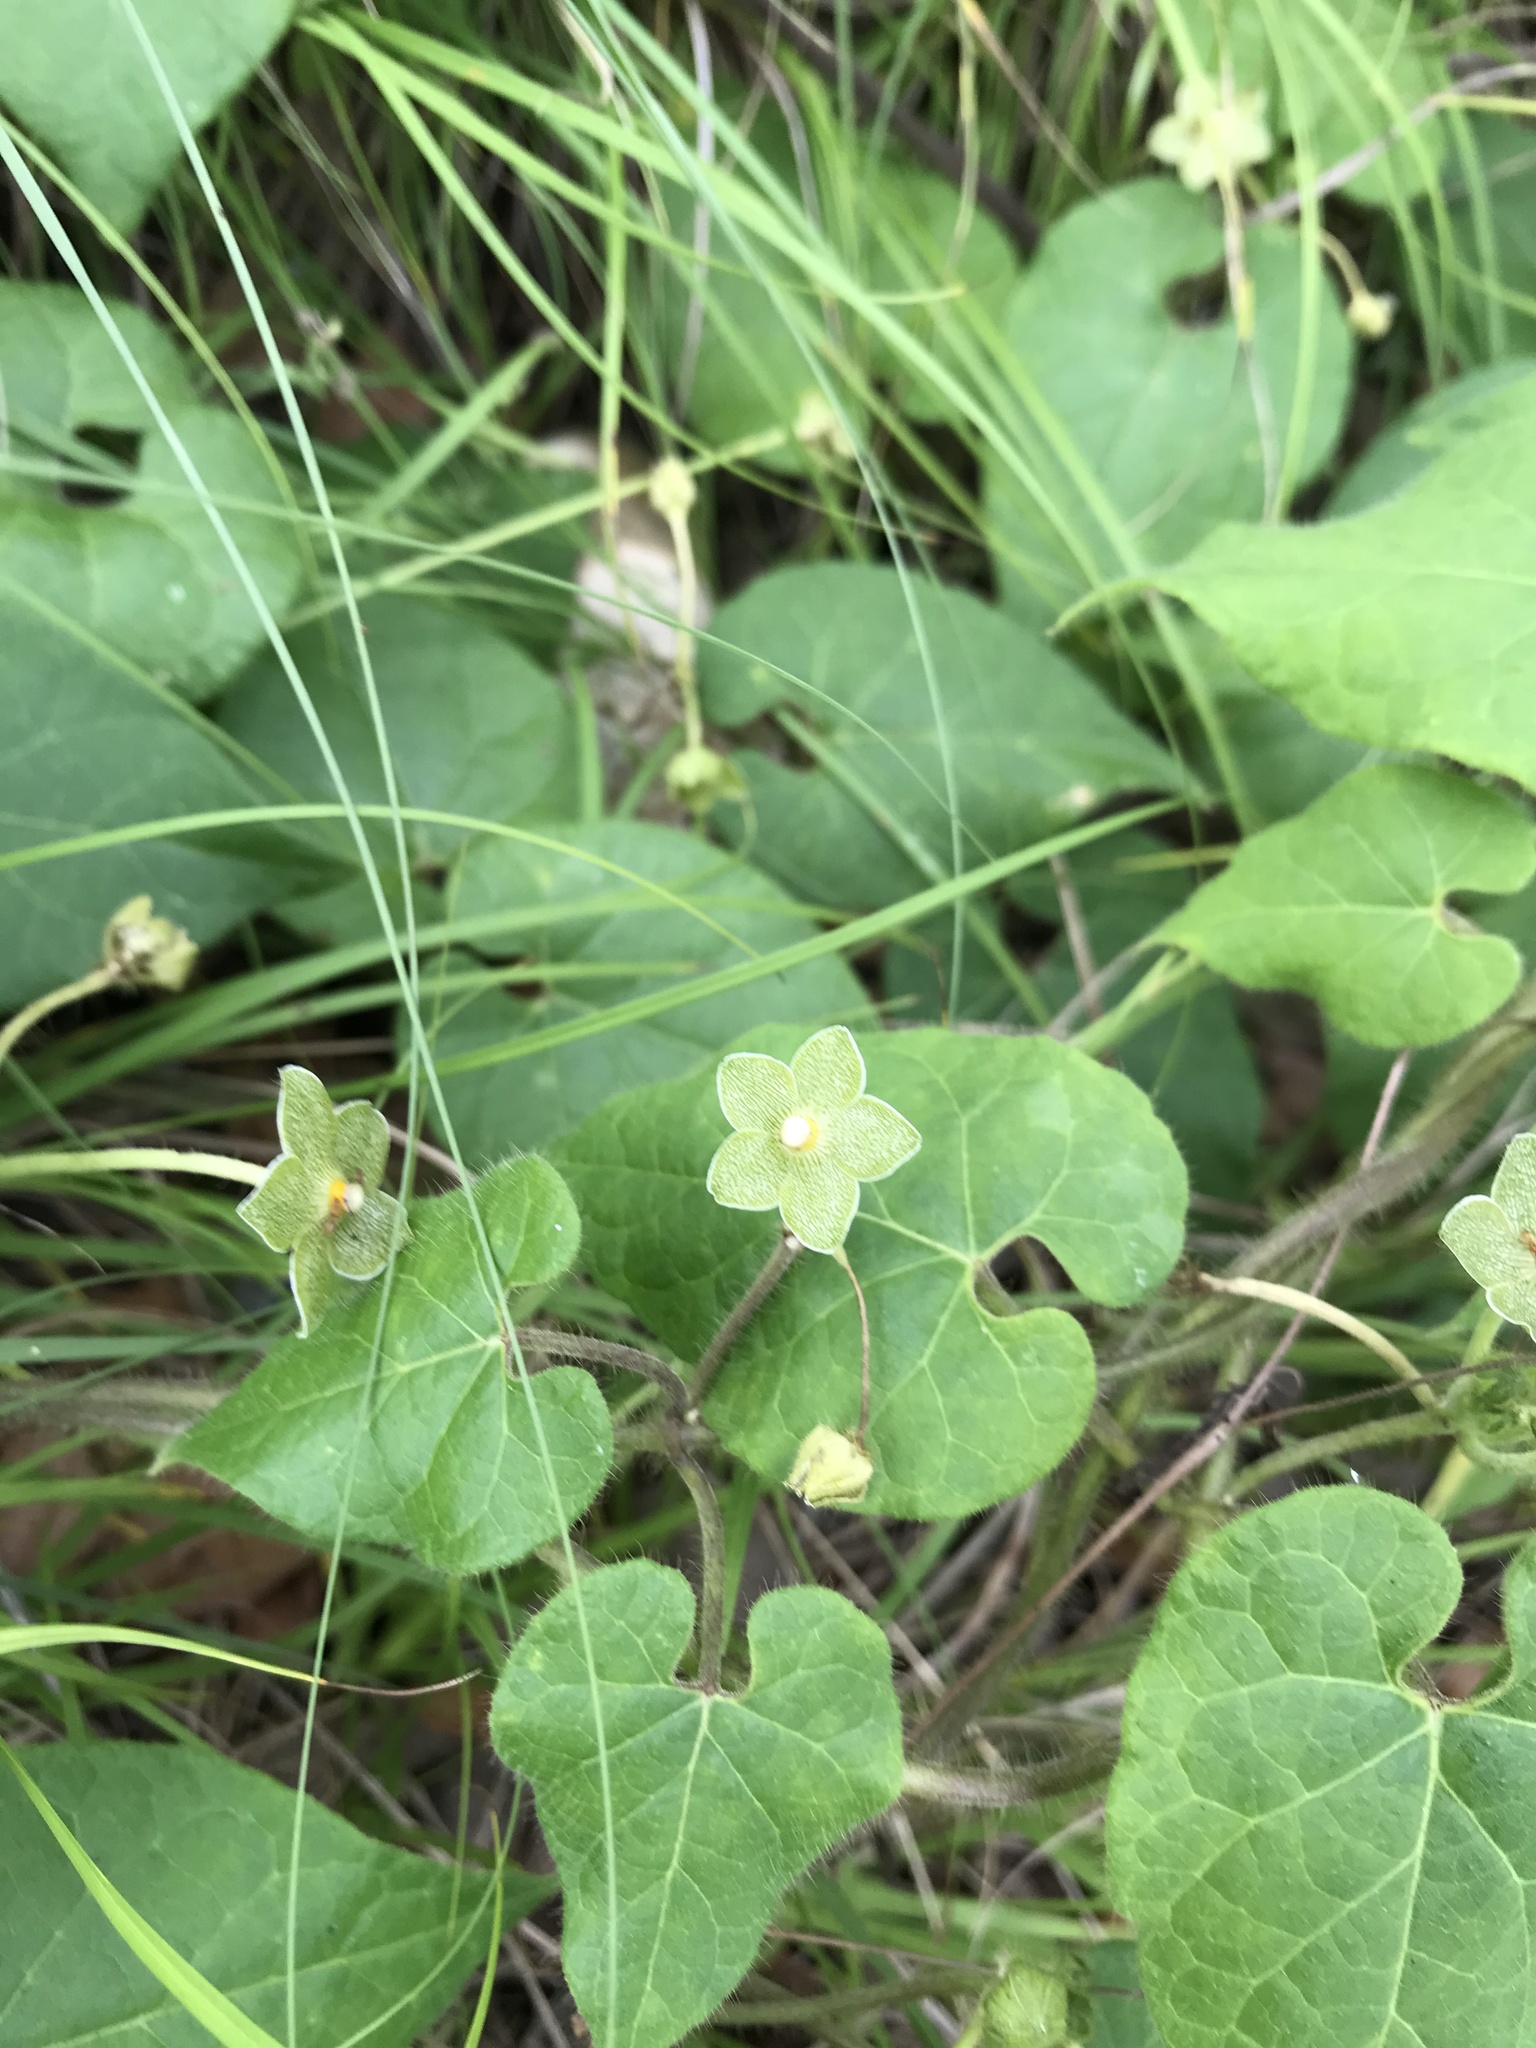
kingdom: Plantae
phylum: Tracheophyta
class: Magnoliopsida
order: Gentianales
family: Apocynaceae
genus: Dictyanthus
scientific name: Dictyanthus reticulatus
